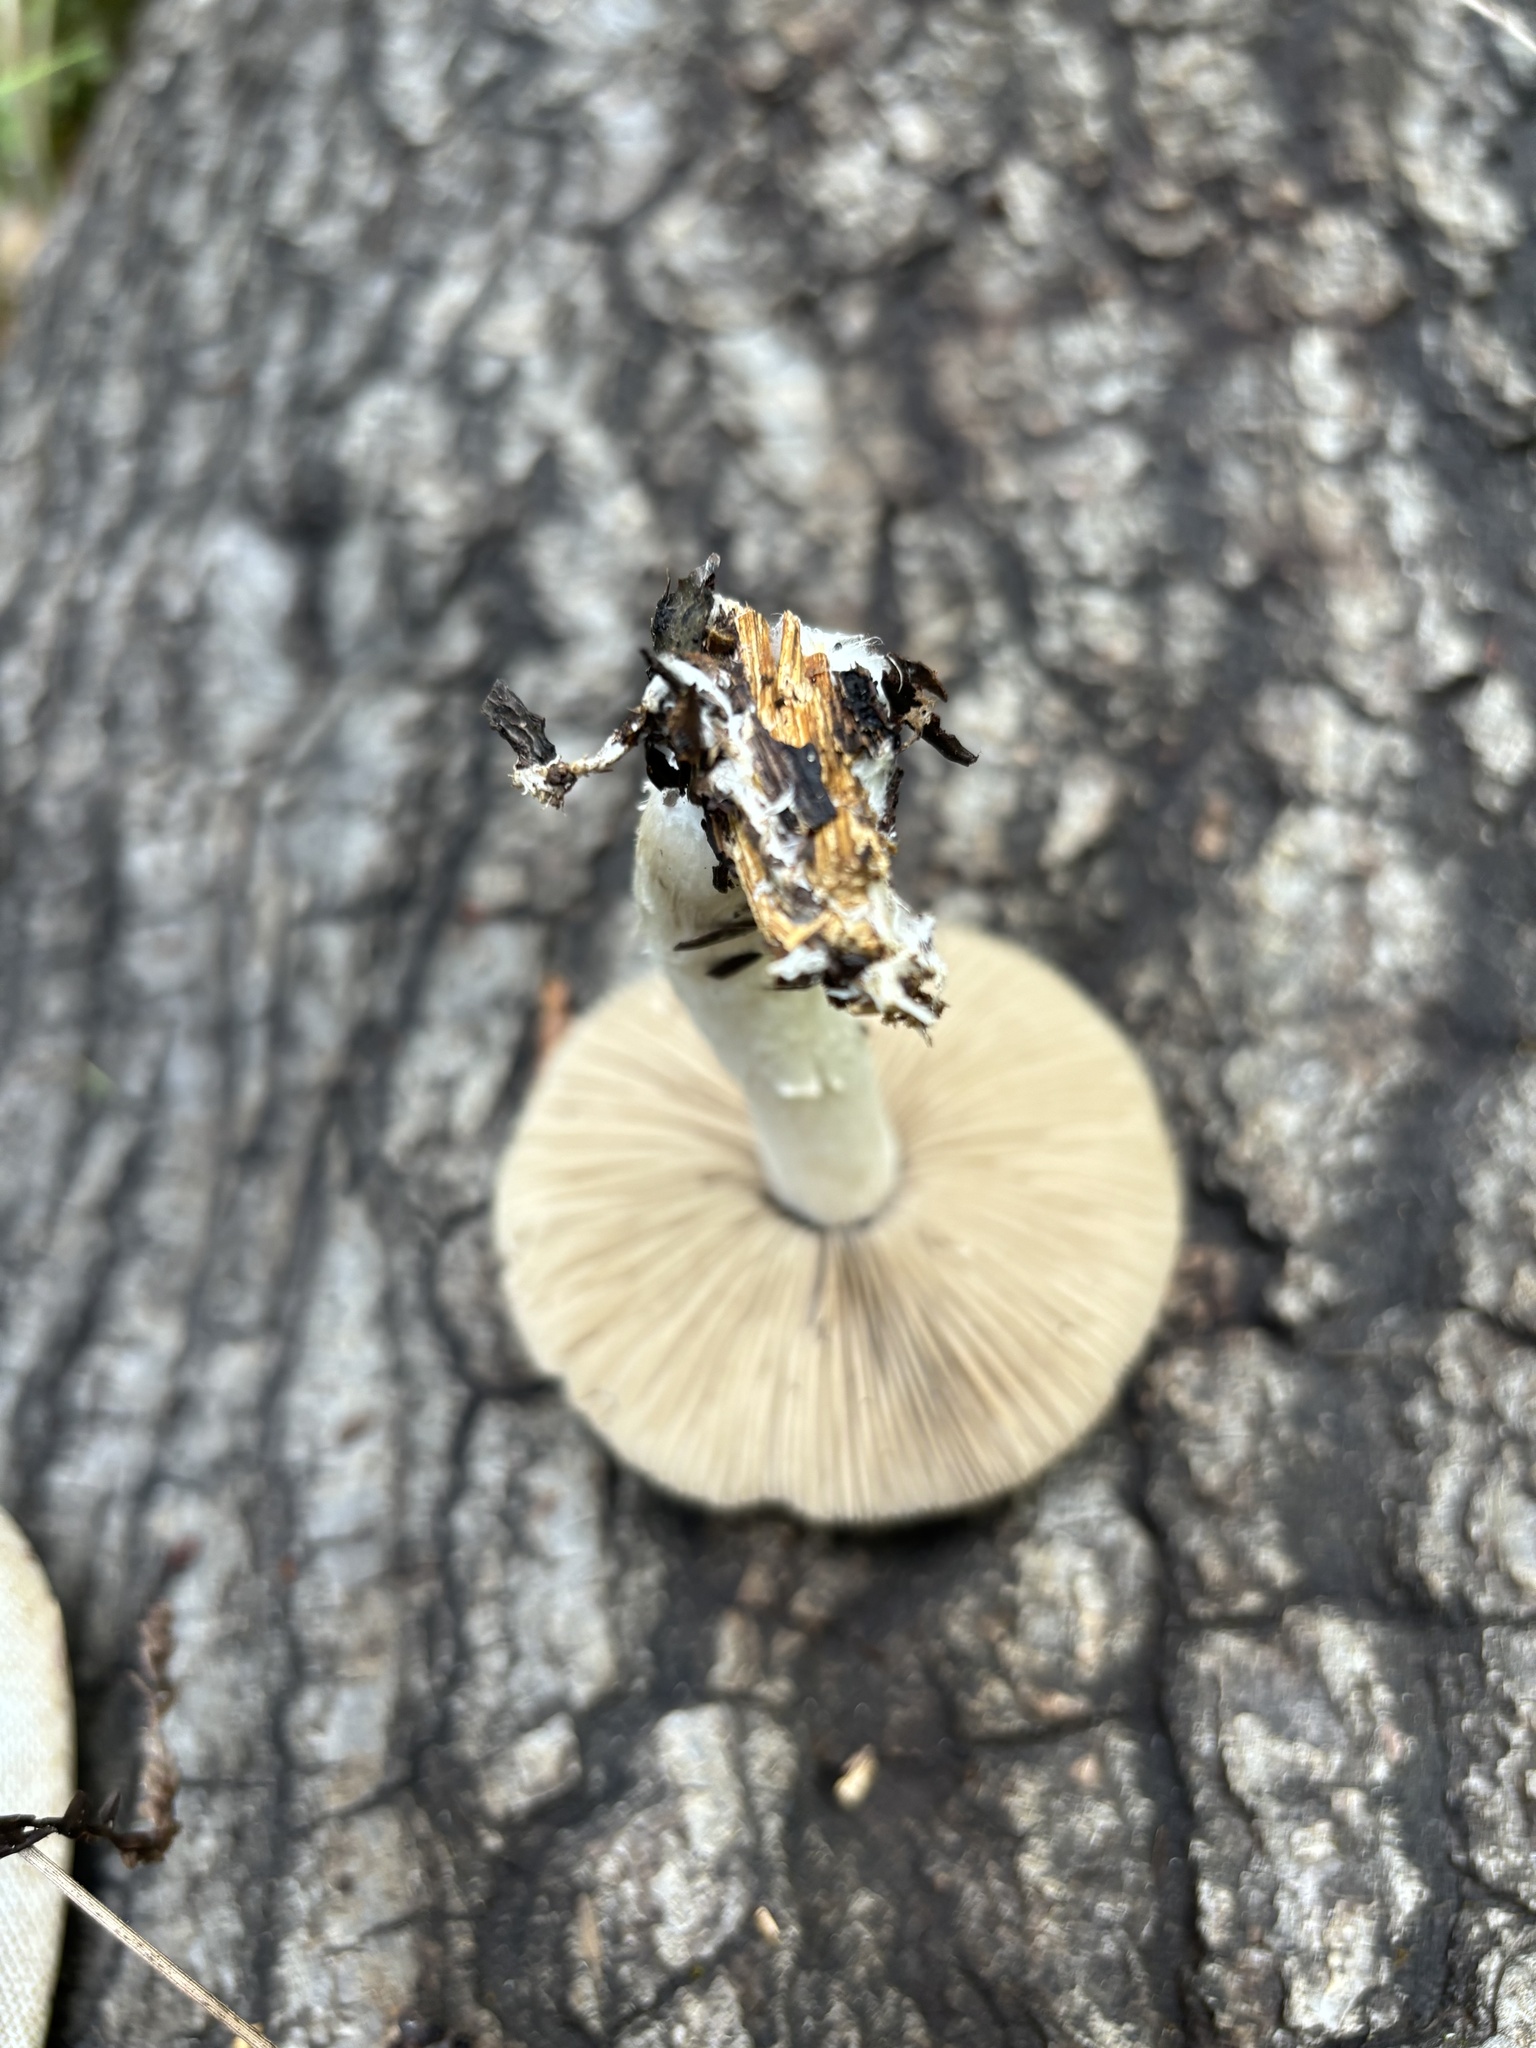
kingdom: Fungi
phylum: Basidiomycota
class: Agaricomycetes
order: Agaricales
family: Psathyrellaceae
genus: Psathyrella
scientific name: Psathyrella uliginicola
